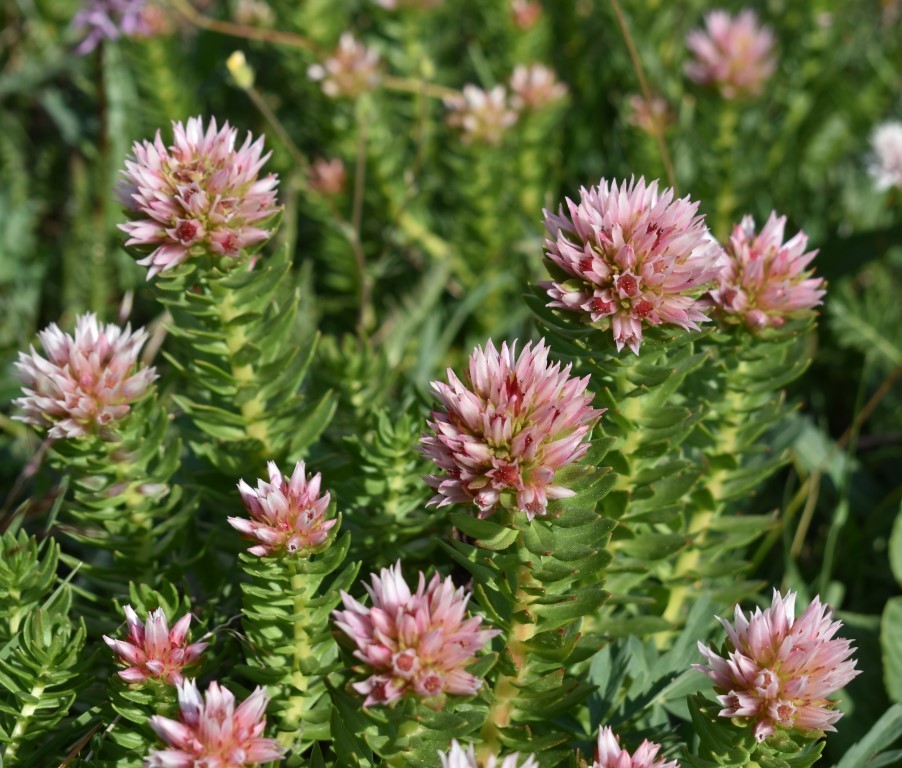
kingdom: Plantae
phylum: Tracheophyta
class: Magnoliopsida
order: Saxifragales
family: Crassulaceae
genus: Rhodiola
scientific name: Rhodiola rhodantha
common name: Red orpine
